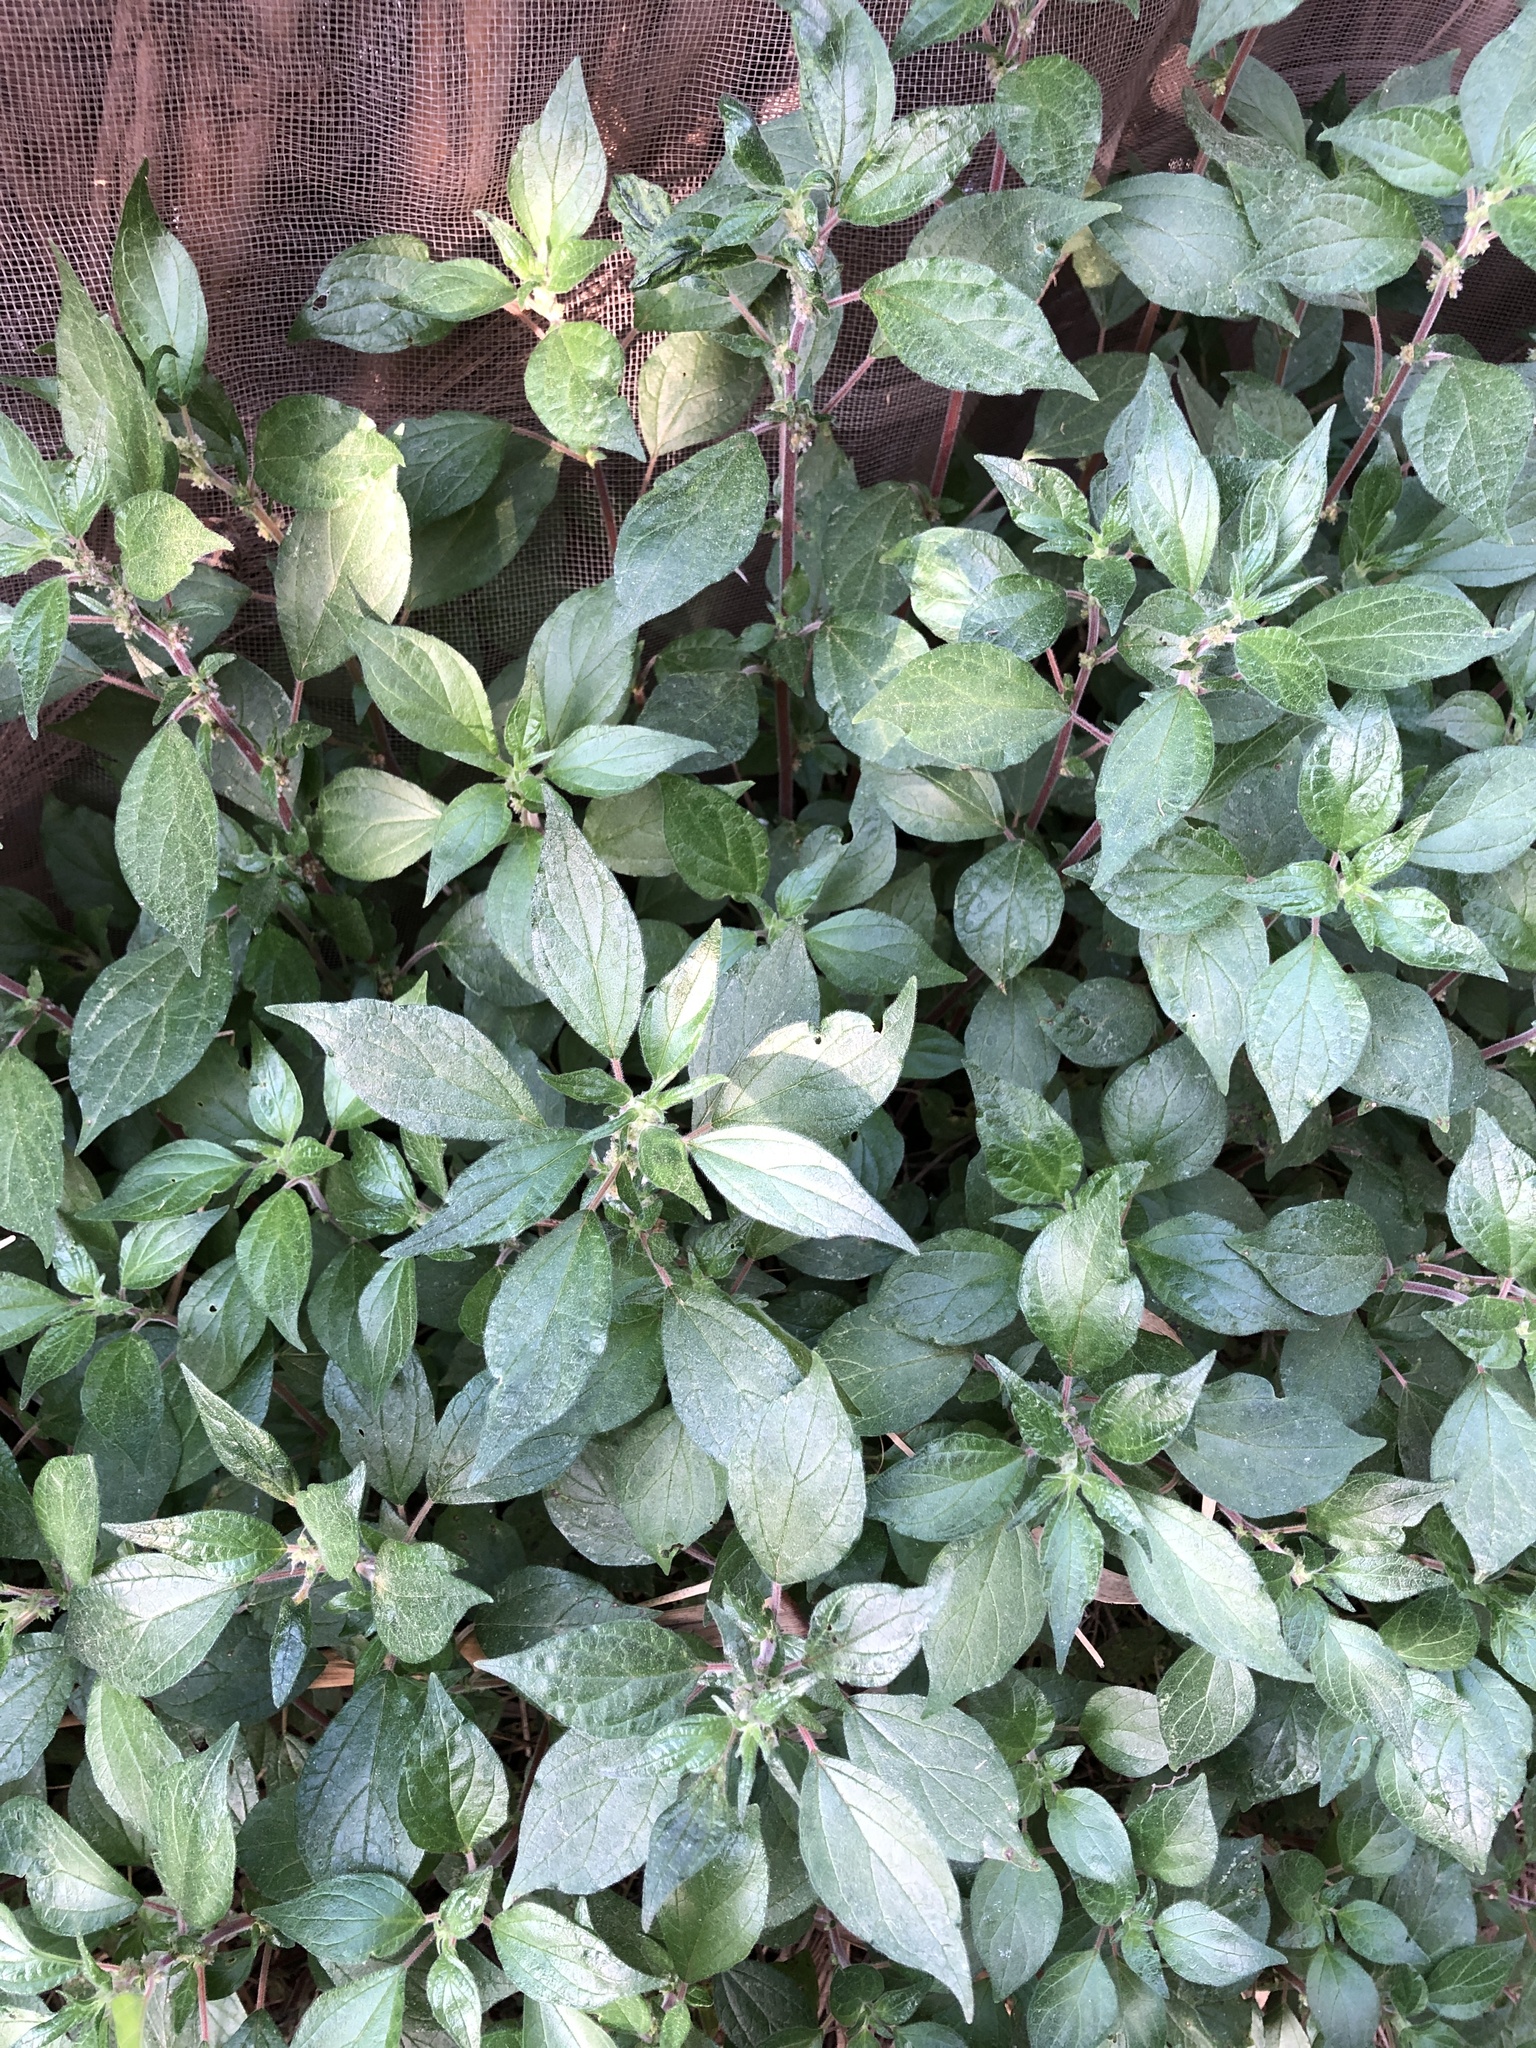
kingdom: Plantae
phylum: Tracheophyta
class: Magnoliopsida
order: Rosales
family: Urticaceae
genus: Parietaria
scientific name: Parietaria judaica
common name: Pellitory-of-the-wall
